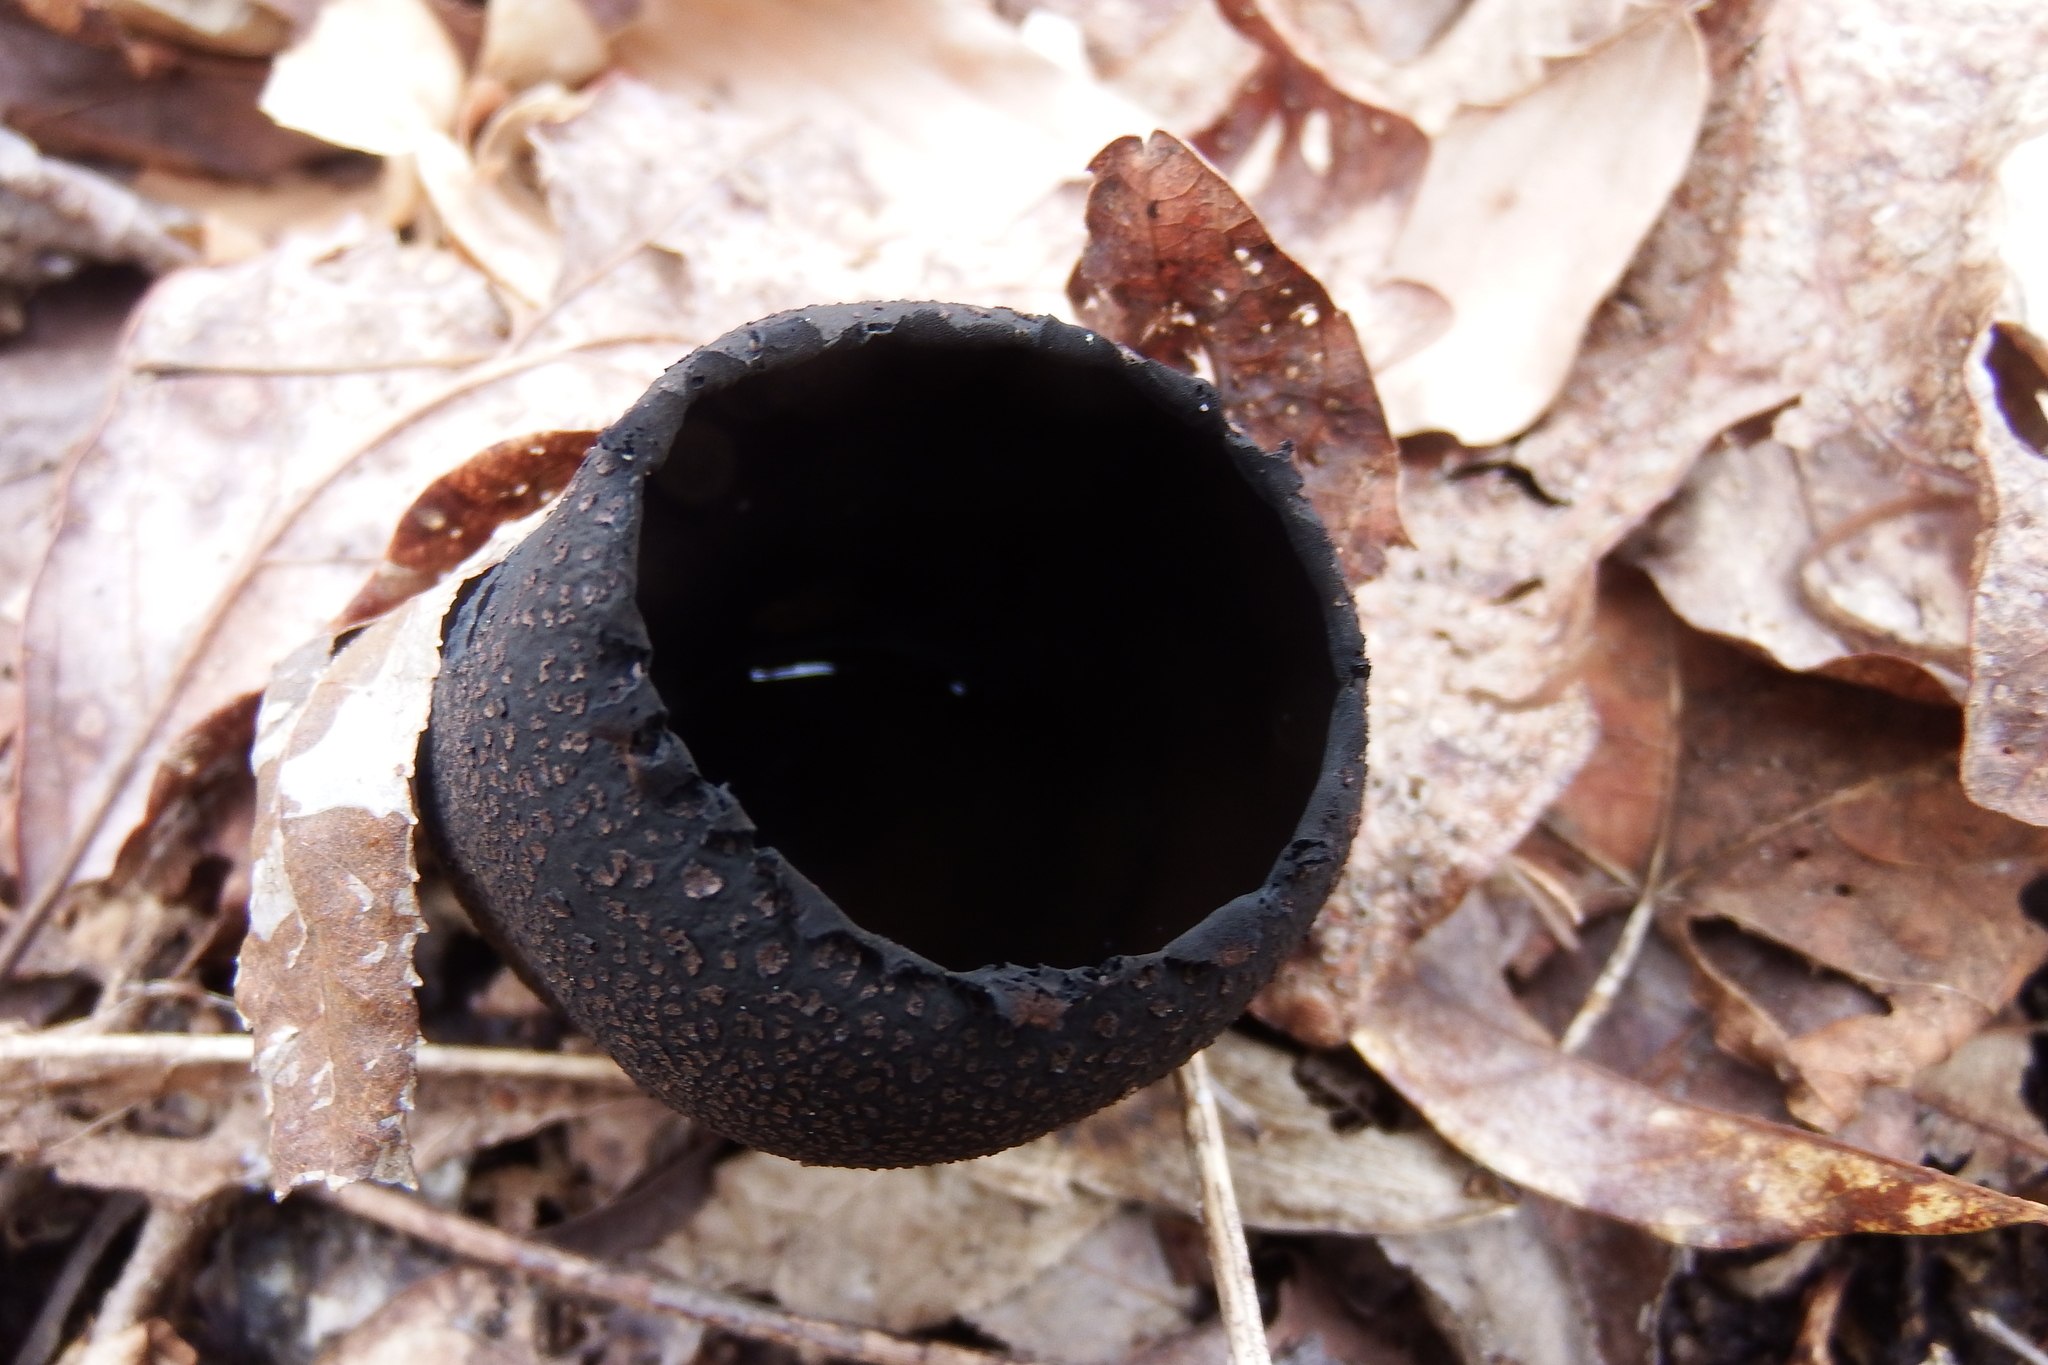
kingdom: Fungi
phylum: Ascomycota
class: Pezizomycetes
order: Pezizales
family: Sarcosomataceae
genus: Urnula
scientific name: Urnula craterium
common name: Devil's urn
